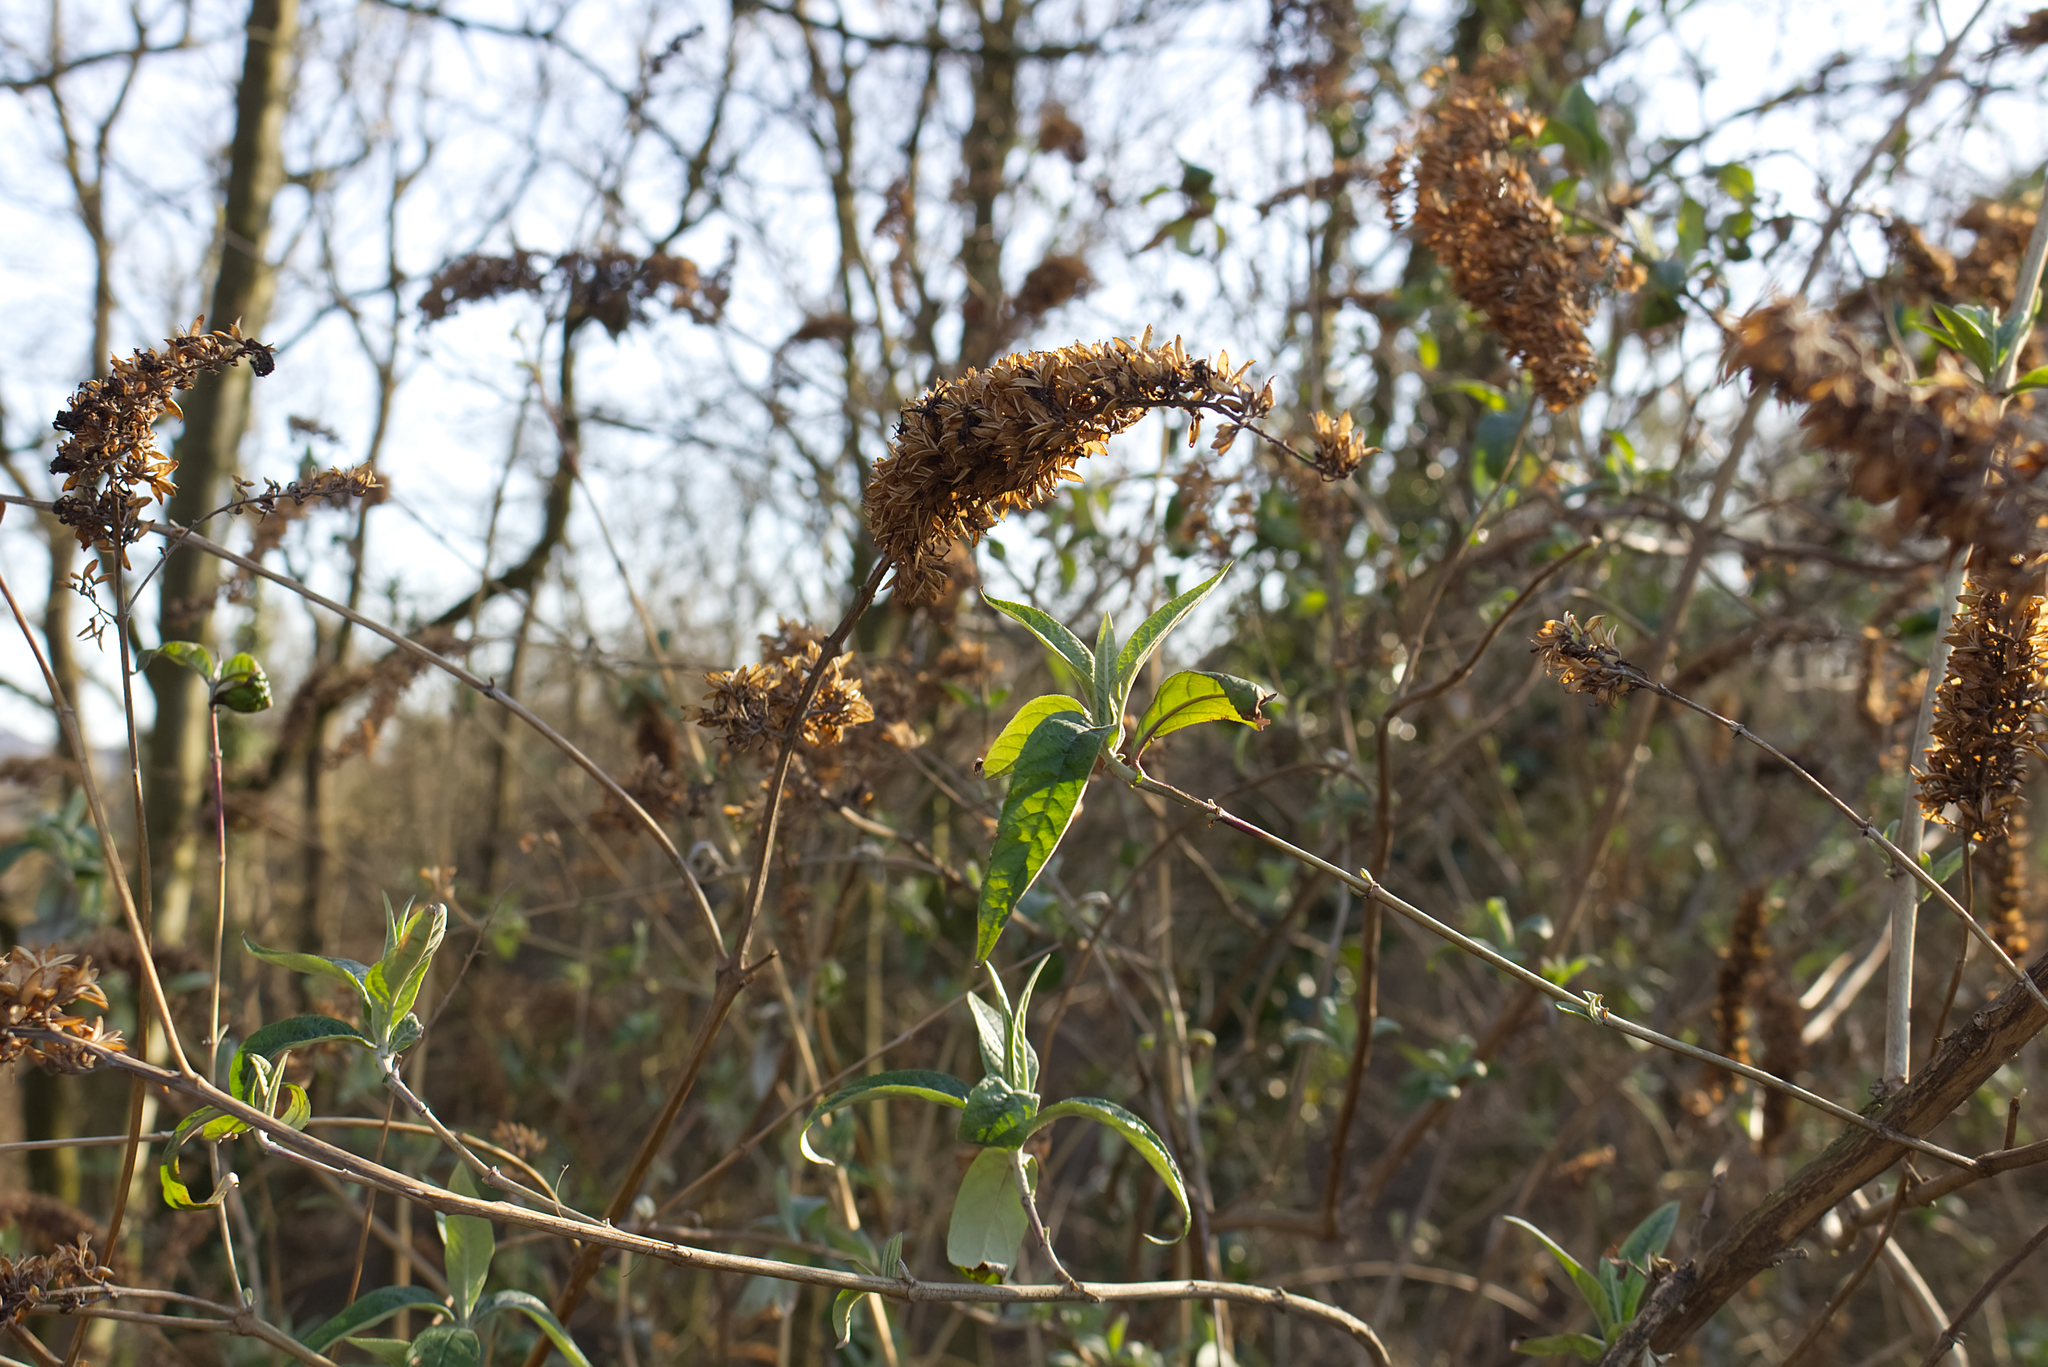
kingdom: Plantae
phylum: Tracheophyta
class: Magnoliopsida
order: Lamiales
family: Scrophulariaceae
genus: Buddleja
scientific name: Buddleja davidii
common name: Butterfly-bush
